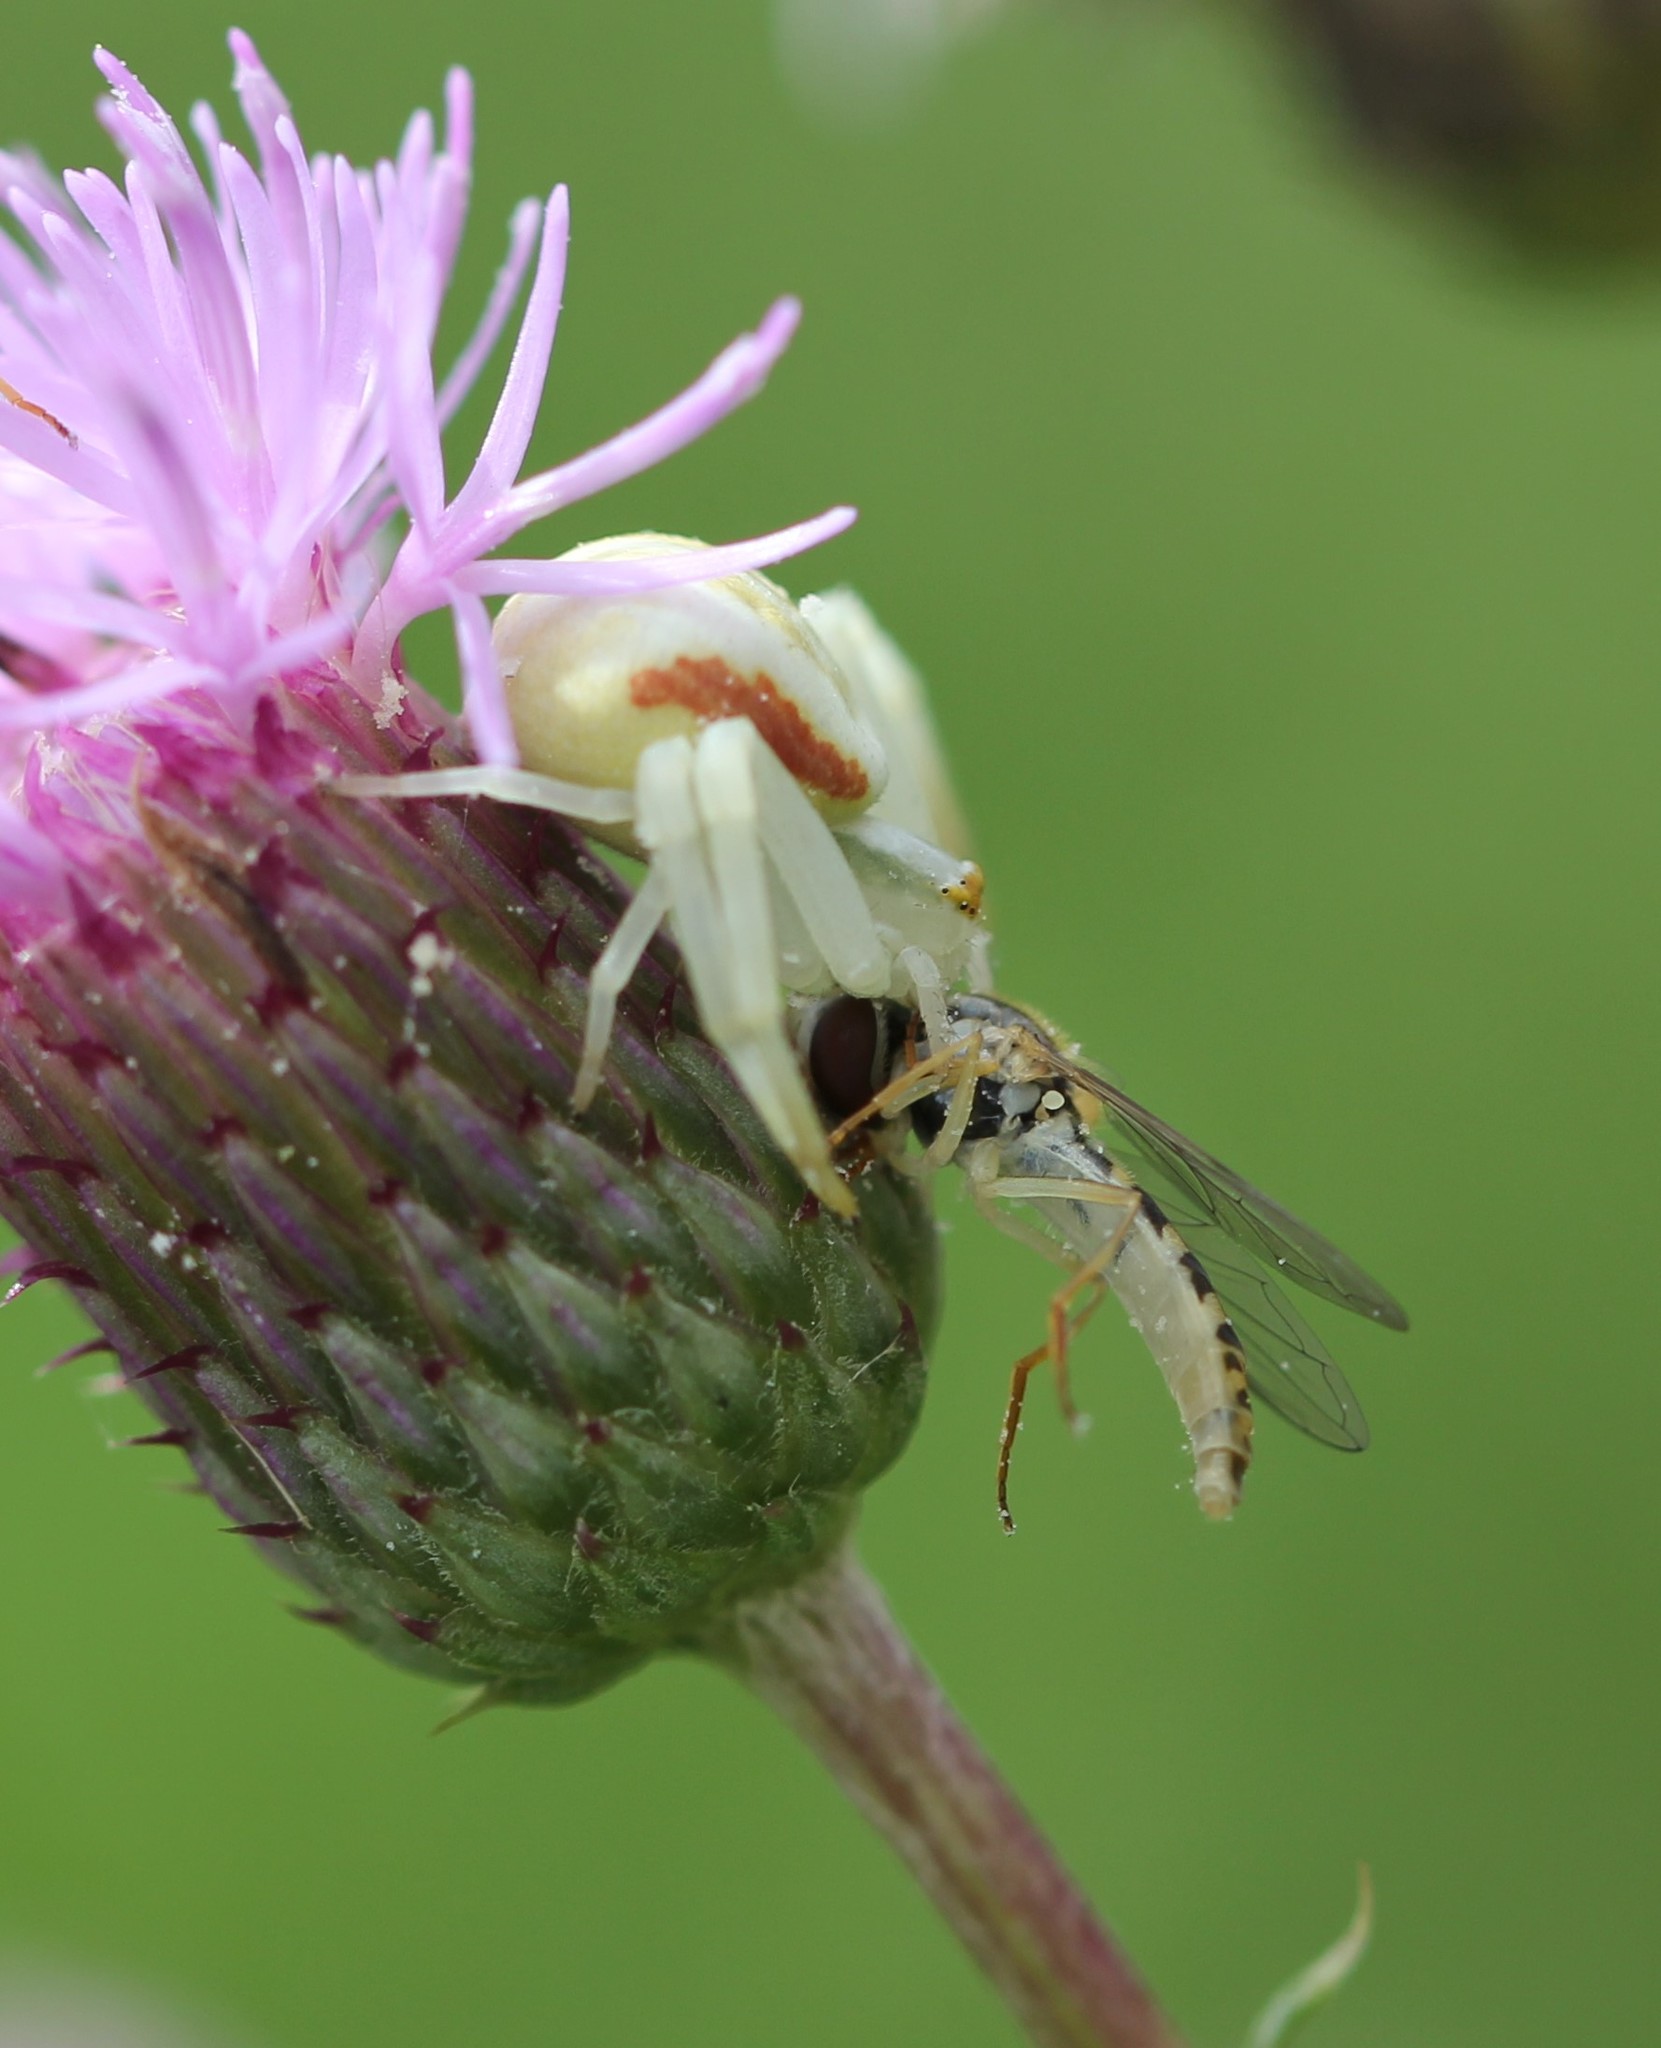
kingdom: Animalia
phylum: Arthropoda
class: Arachnida
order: Araneae
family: Thomisidae
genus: Misumena
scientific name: Misumena vatia
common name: Goldenrod crab spider
